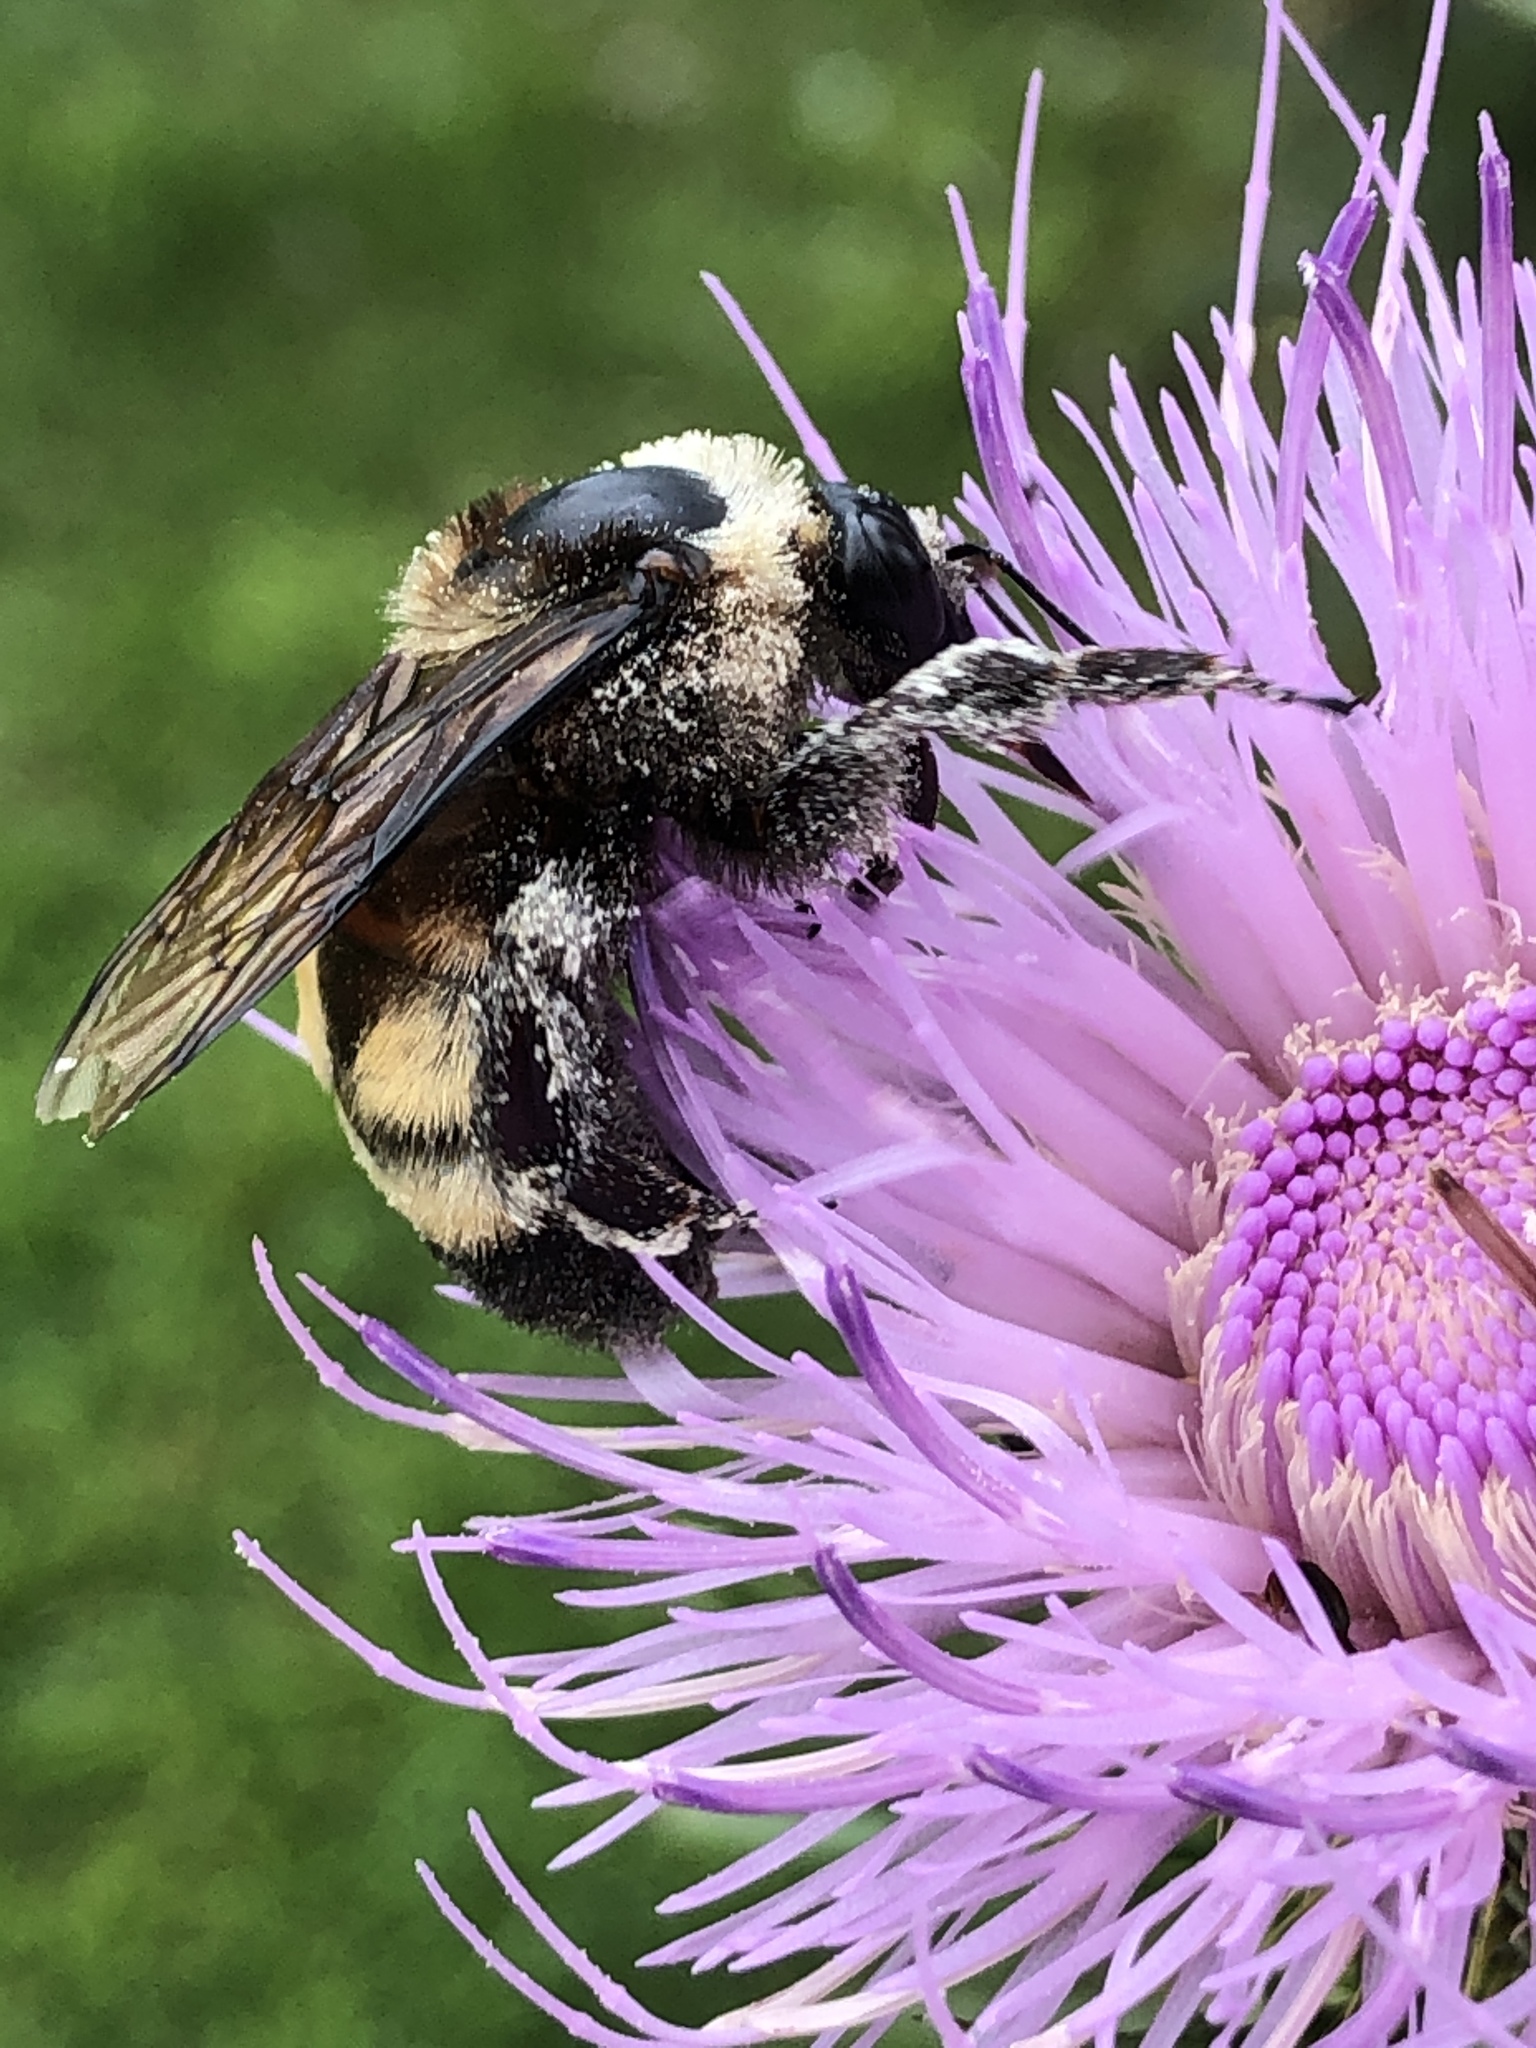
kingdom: Animalia
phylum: Arthropoda
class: Insecta
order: Hymenoptera
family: Apidae
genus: Bombus
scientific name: Bombus auricomus
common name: Black and gold bumble bee
